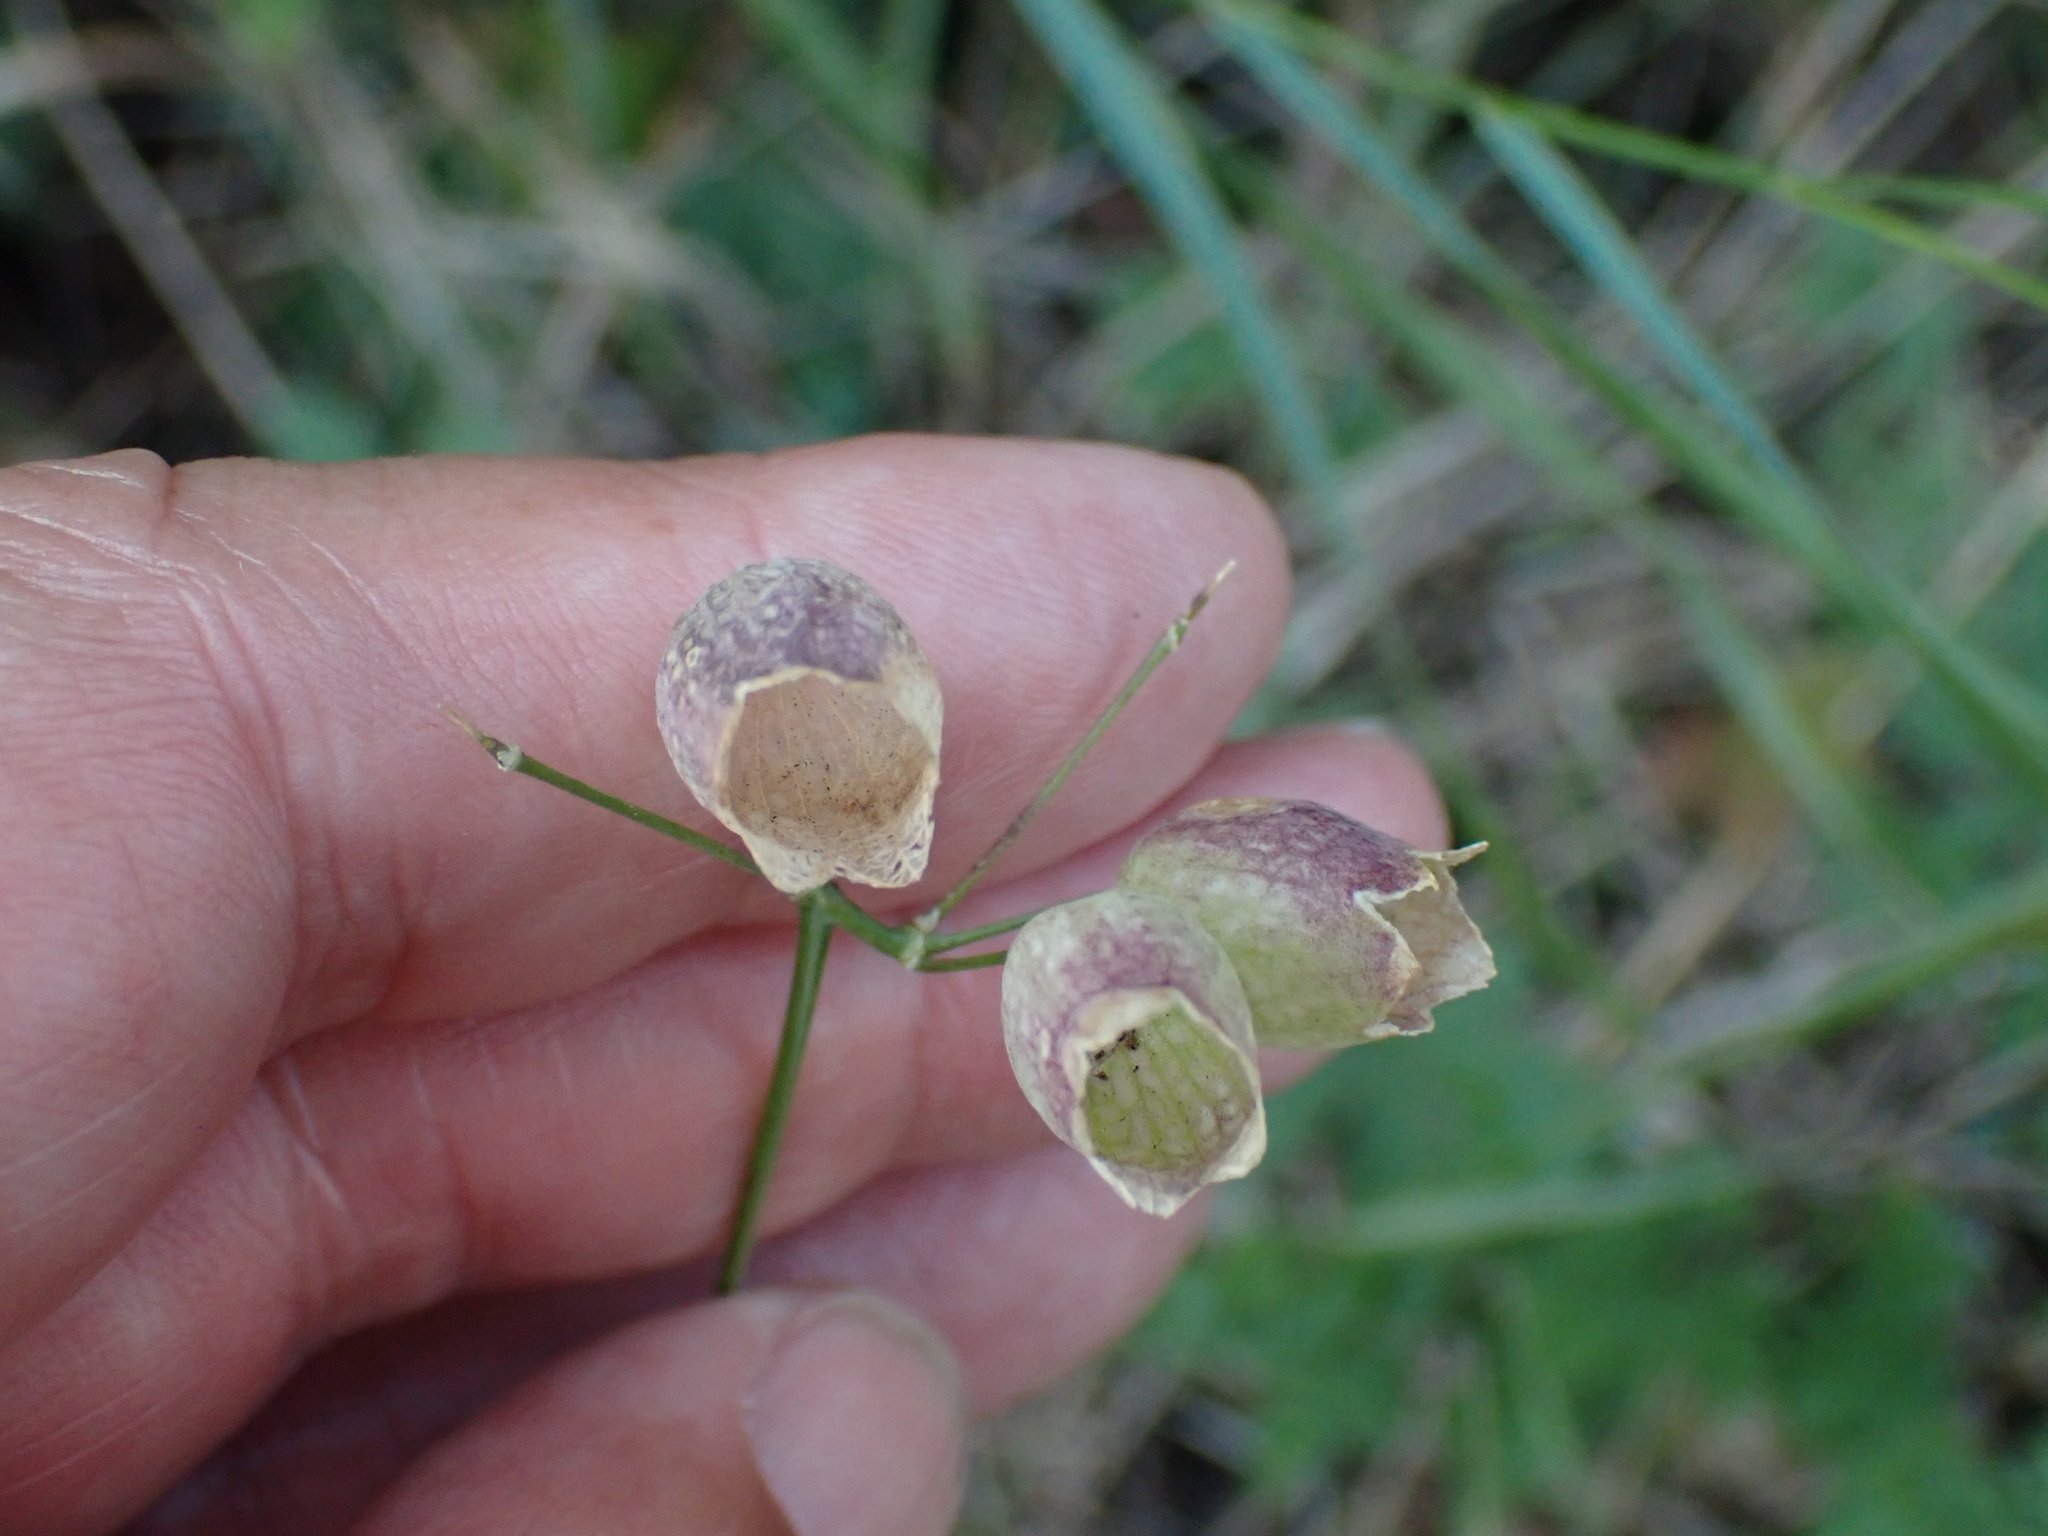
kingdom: Plantae
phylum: Tracheophyta
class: Magnoliopsida
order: Caryophyllales
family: Caryophyllaceae
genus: Silene
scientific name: Silene vulgaris
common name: Bladder campion
